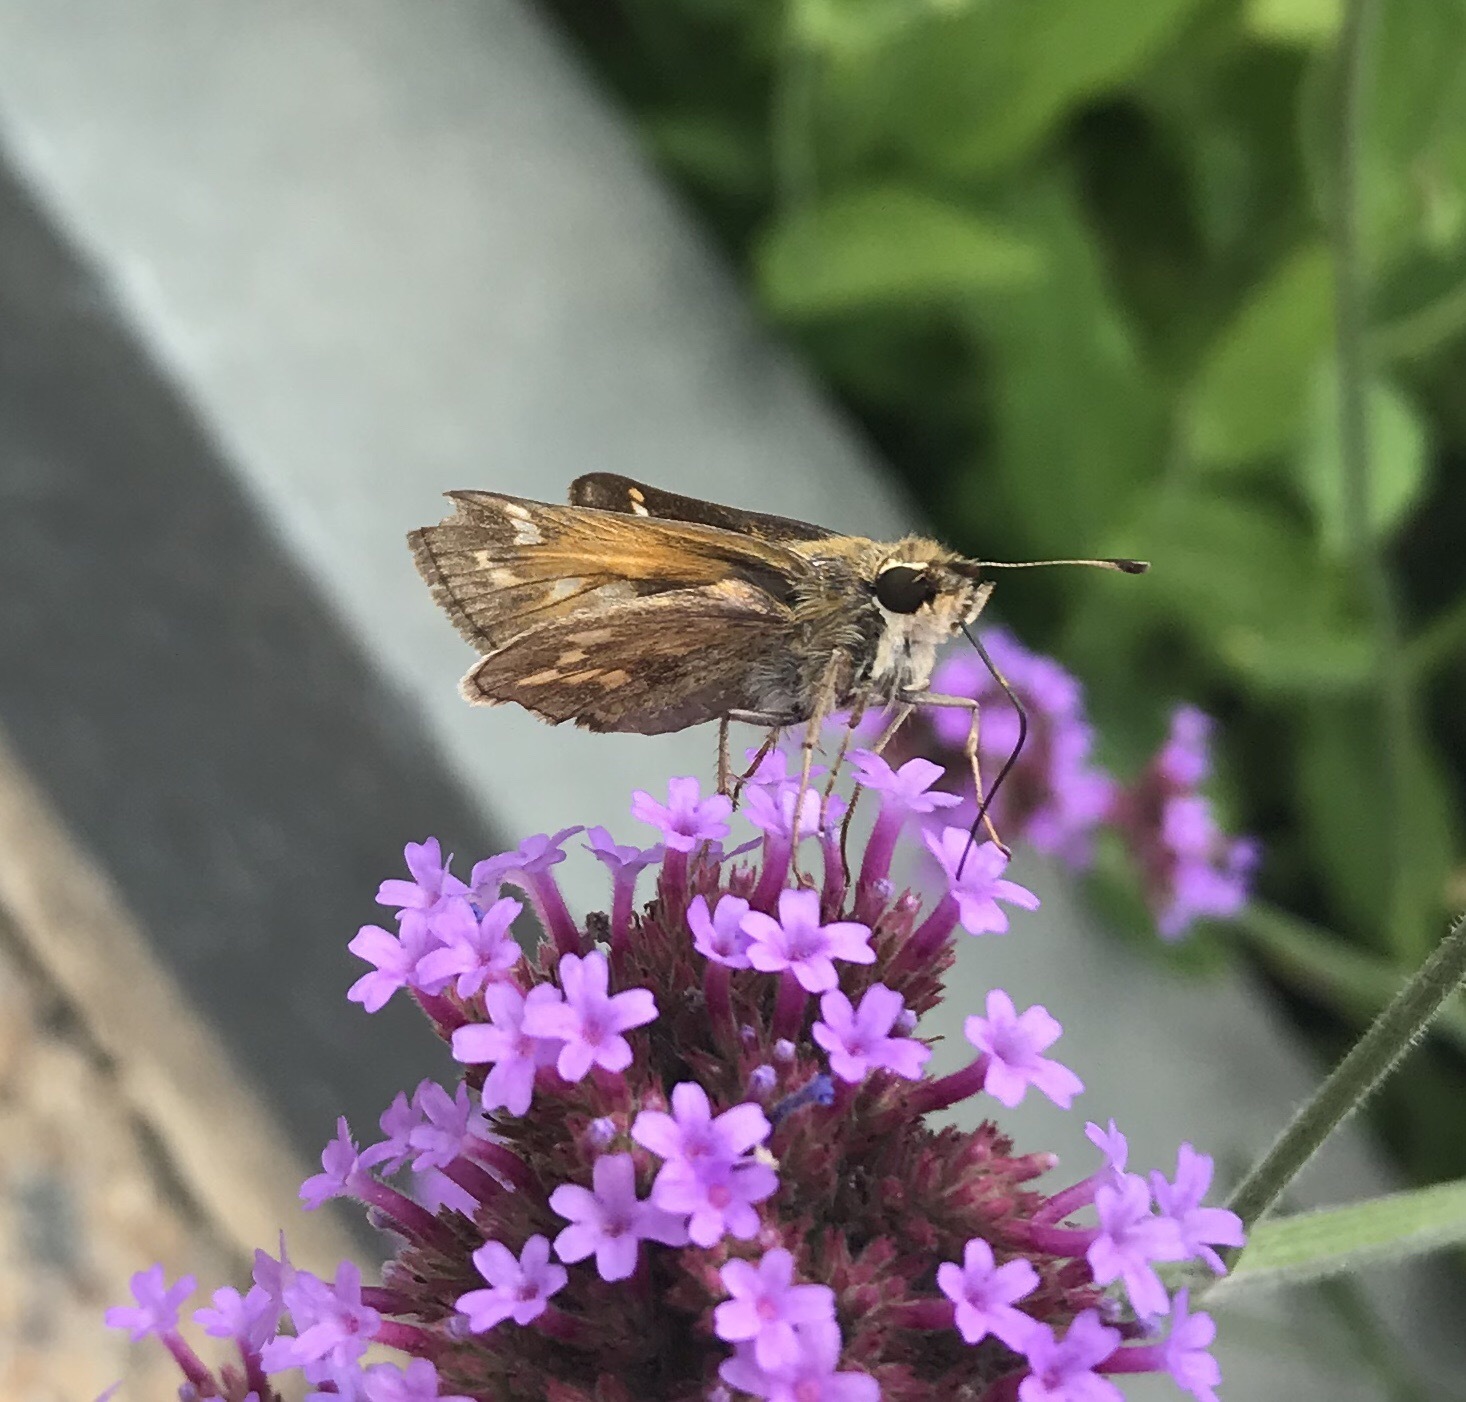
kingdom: Animalia
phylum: Arthropoda
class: Insecta
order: Lepidoptera
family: Hesperiidae
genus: Atalopedes
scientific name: Atalopedes
